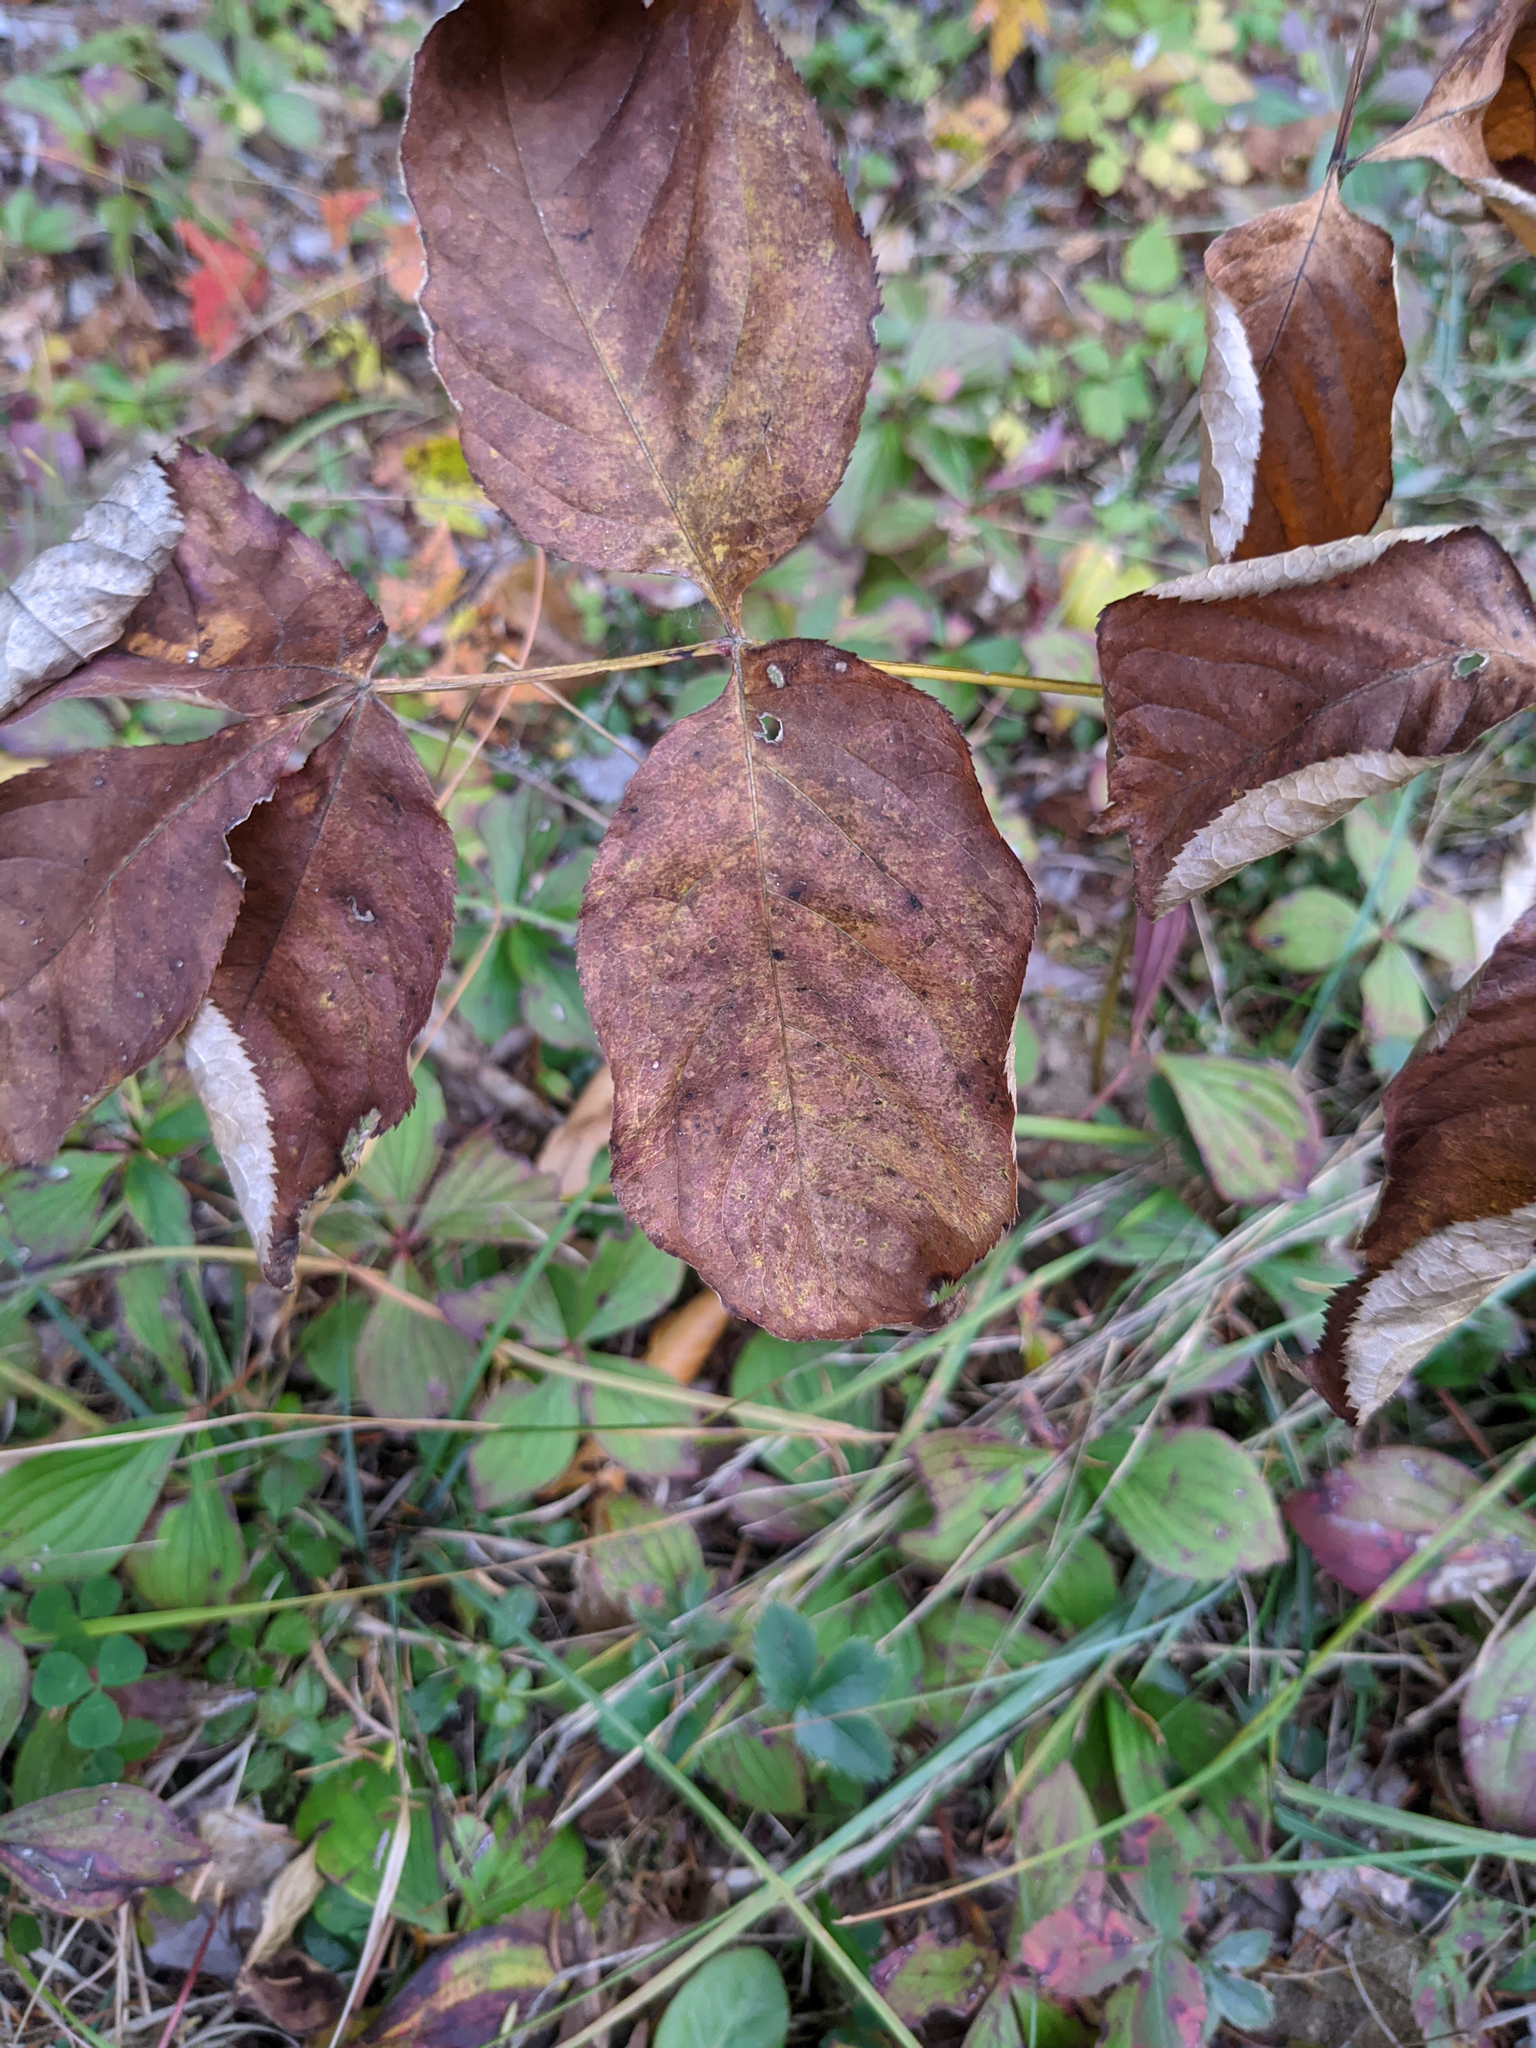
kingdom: Plantae
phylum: Tracheophyta
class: Magnoliopsida
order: Apiales
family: Araliaceae
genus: Aralia
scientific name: Aralia nudicaulis
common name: Wild sarsaparilla
